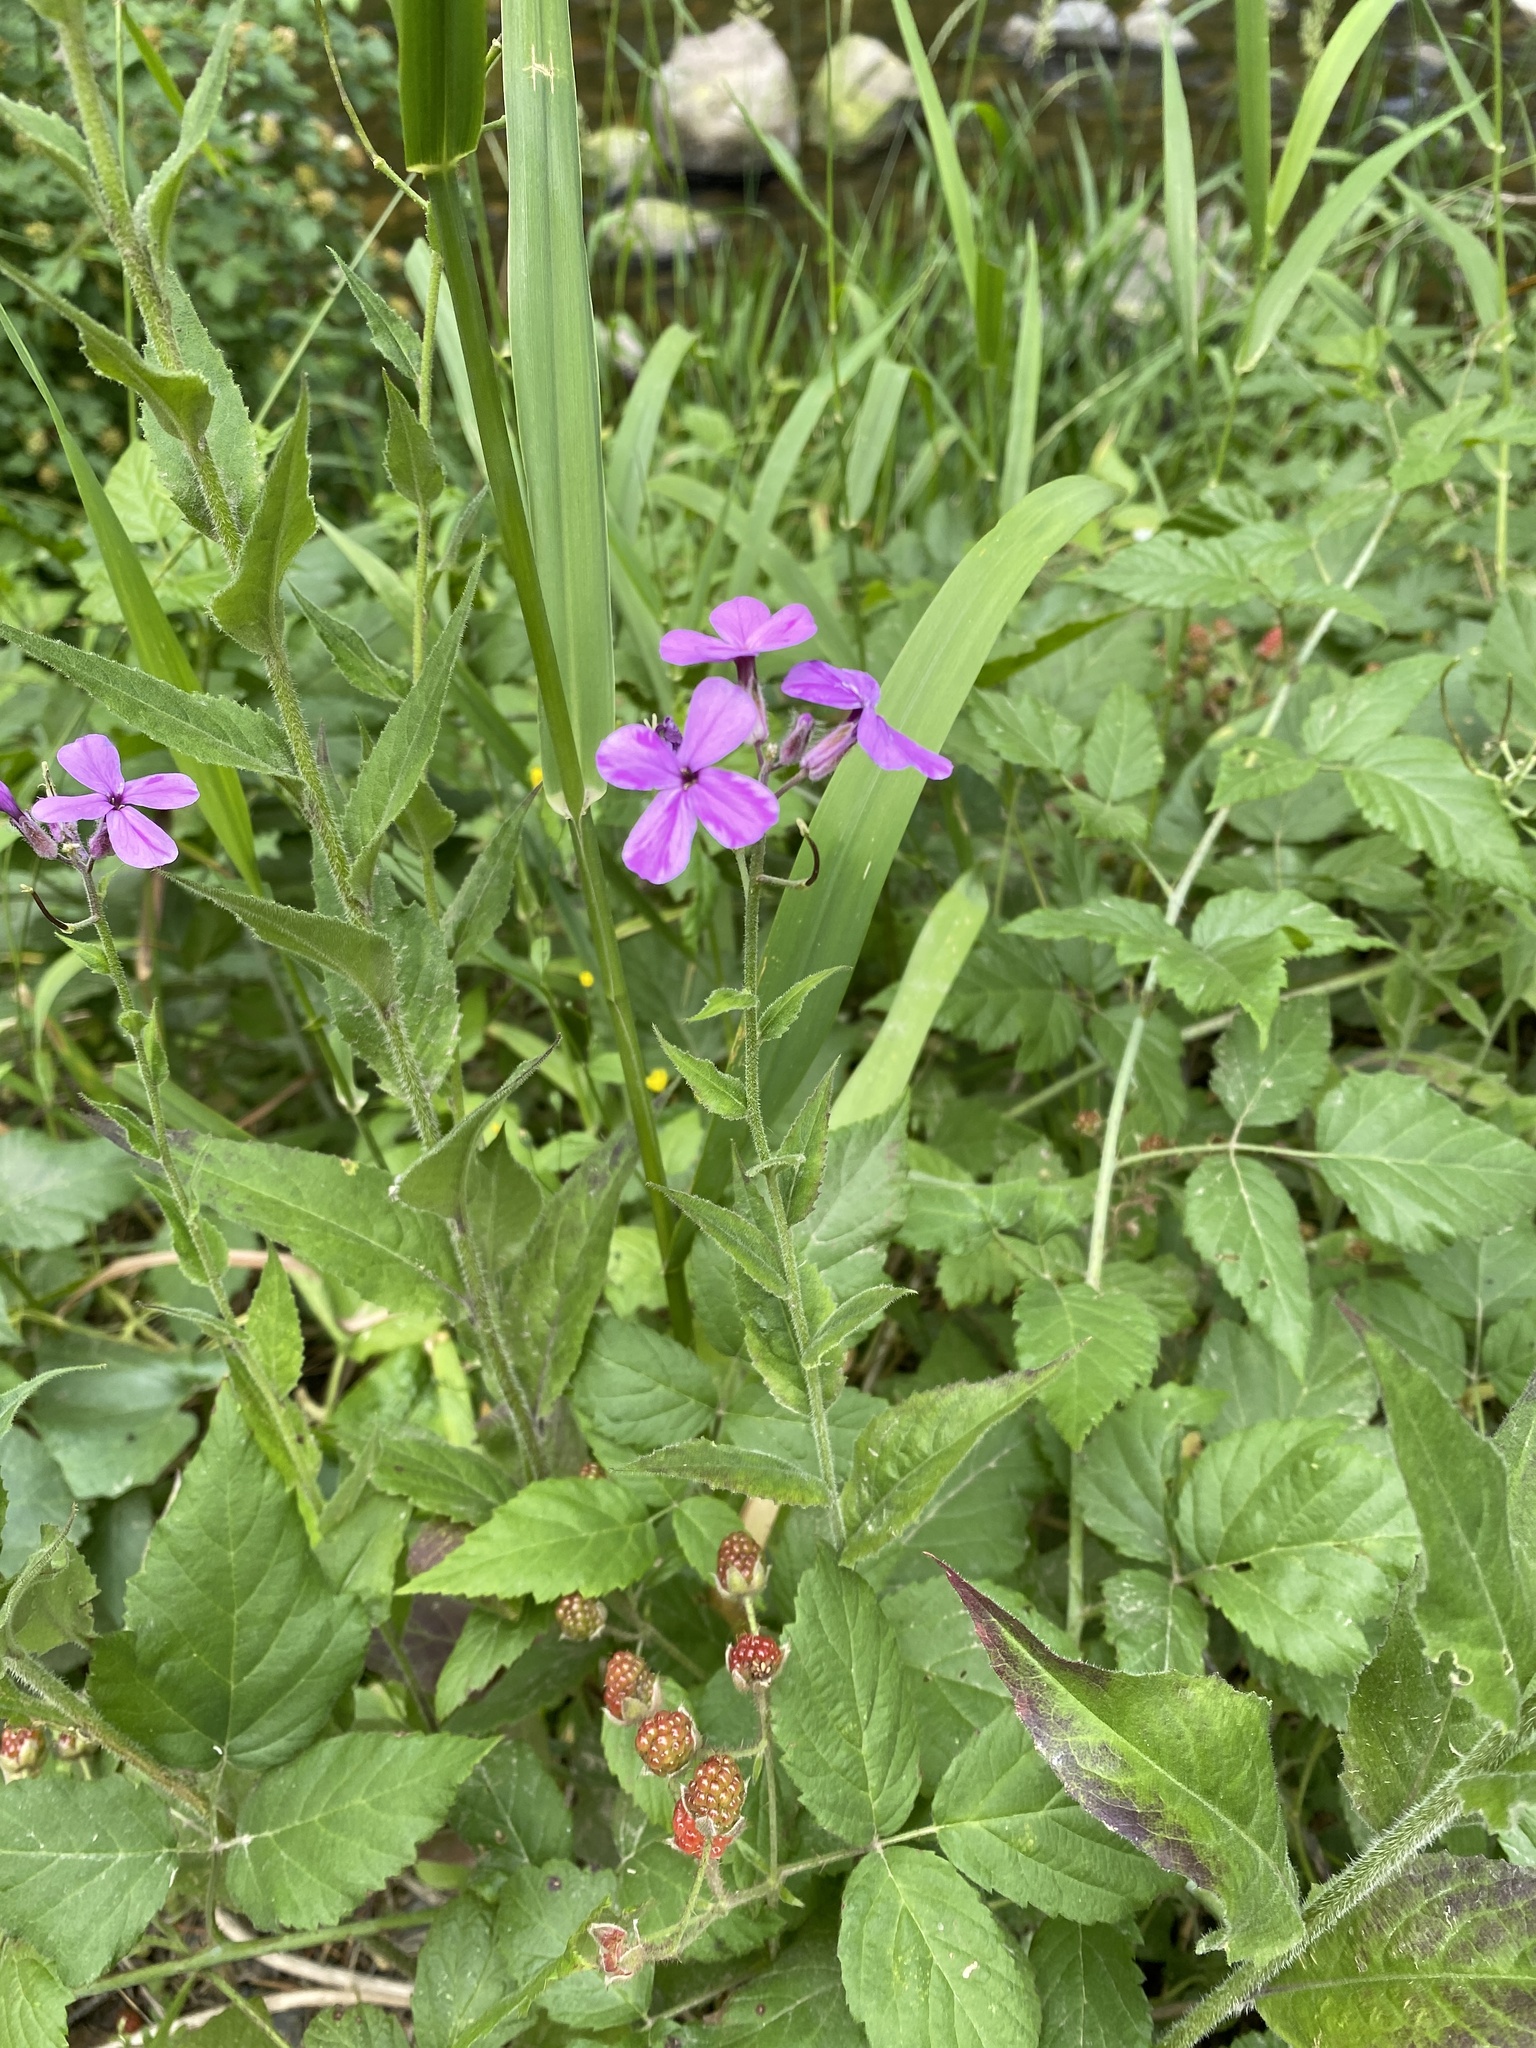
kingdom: Plantae
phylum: Tracheophyta
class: Magnoliopsida
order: Brassicales
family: Brassicaceae
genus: Hesperis
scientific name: Hesperis matronalis
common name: Dame's-violet
